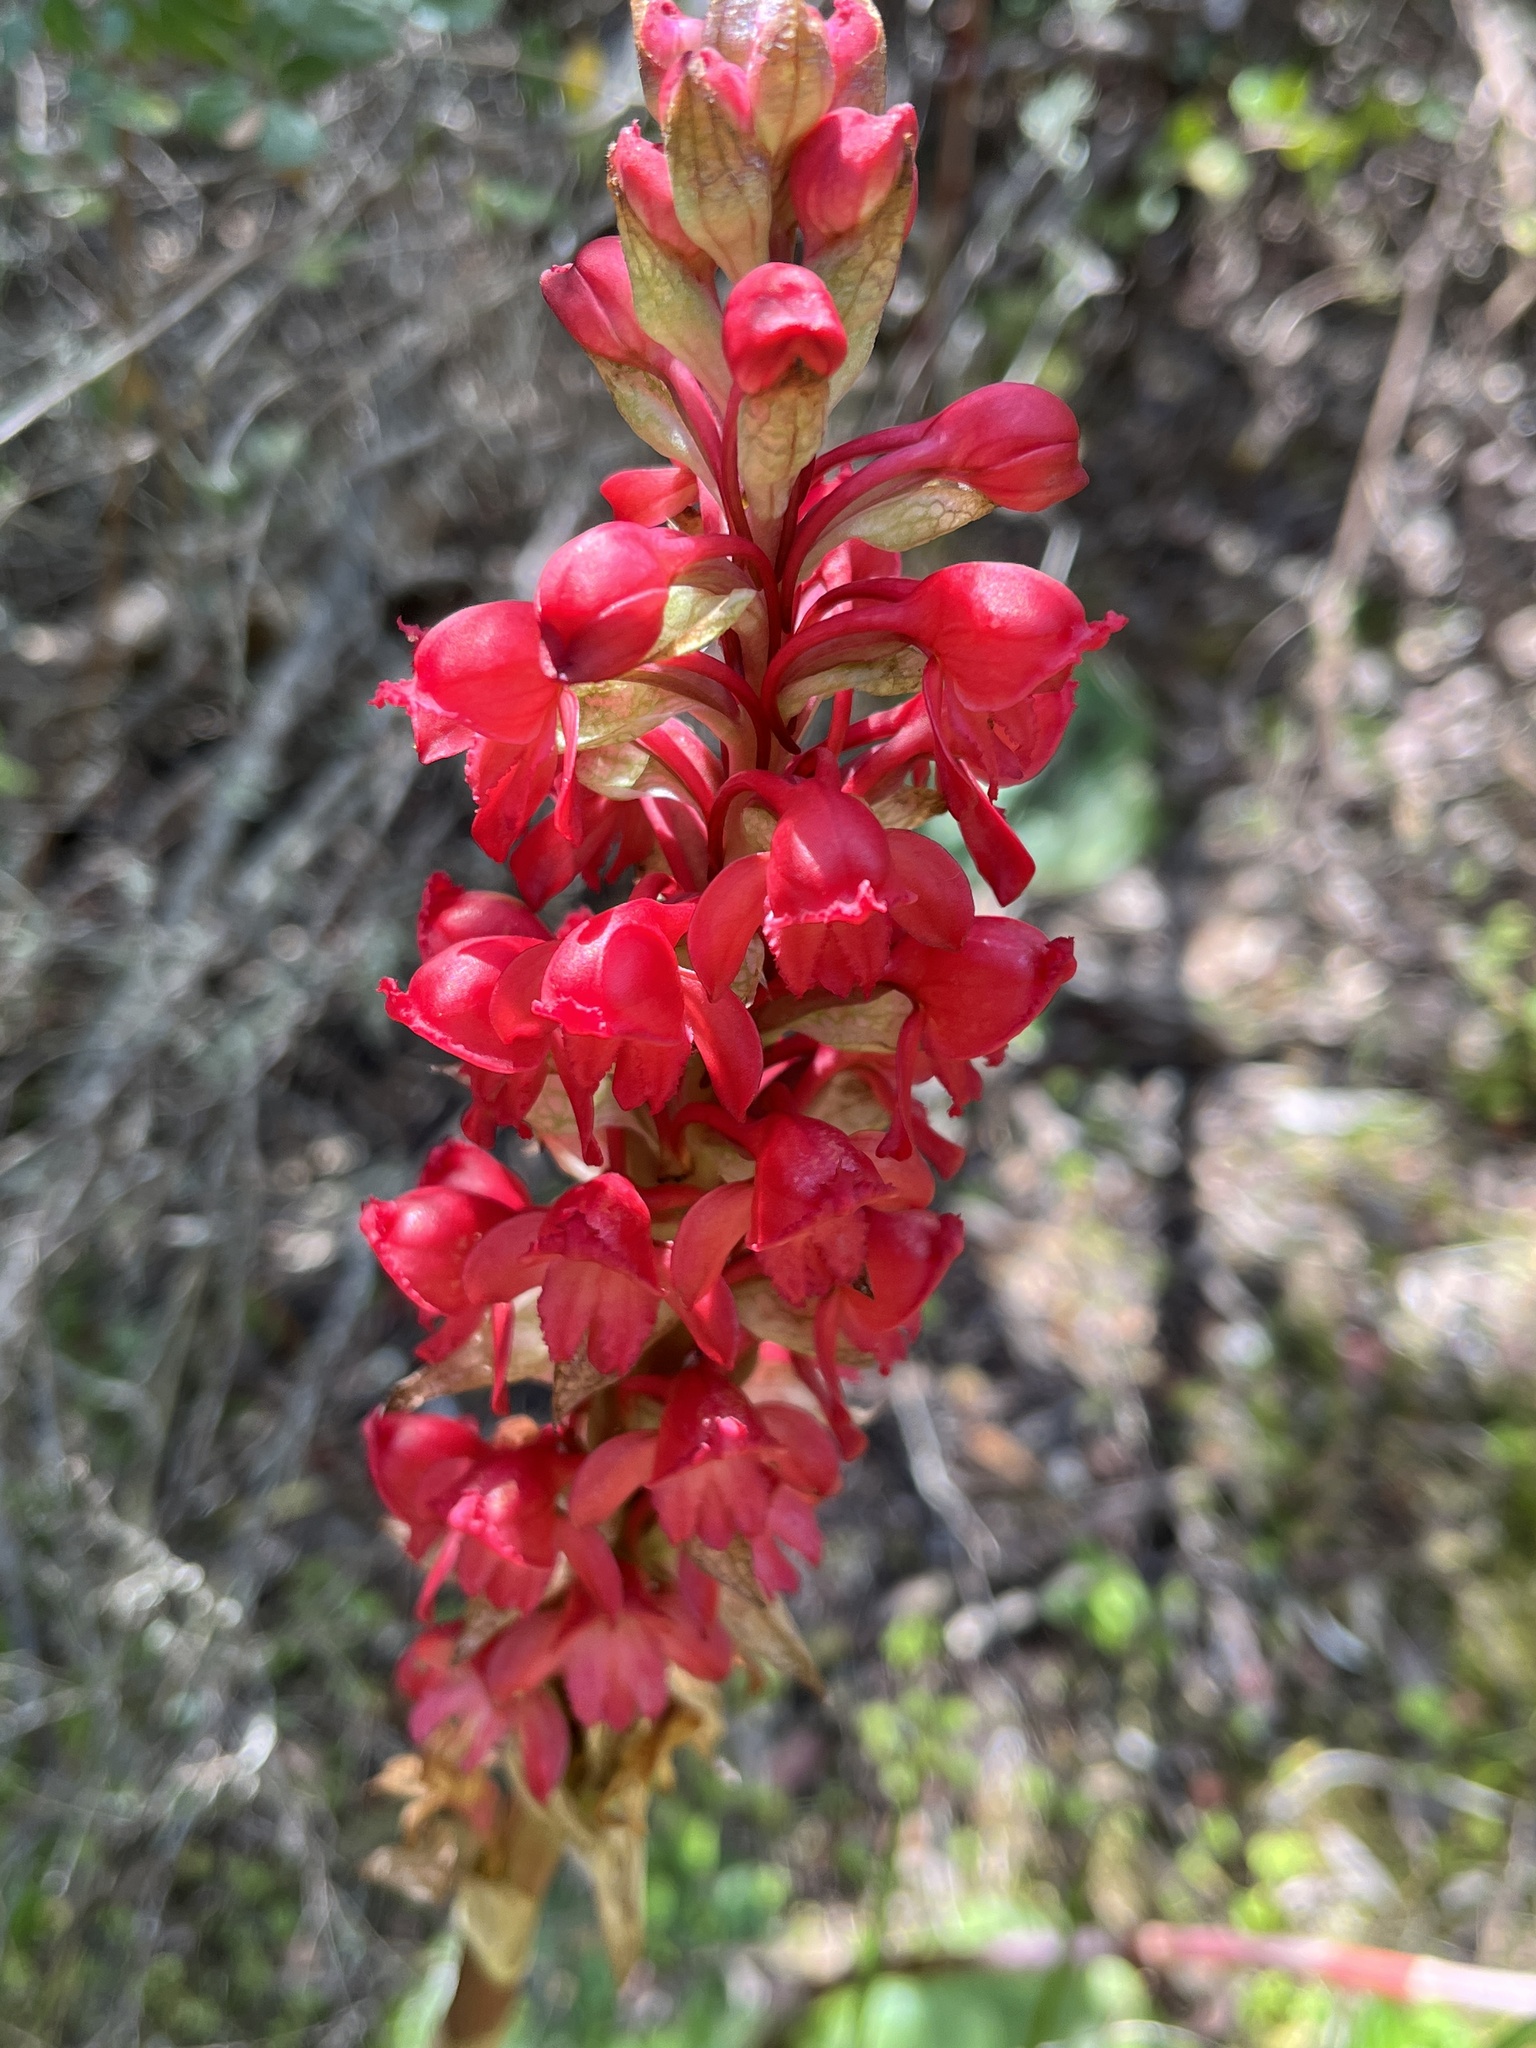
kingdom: Plantae
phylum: Tracheophyta
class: Liliopsida
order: Asparagales
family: Orchidaceae
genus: Satyrium
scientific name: Satyrium princeps
